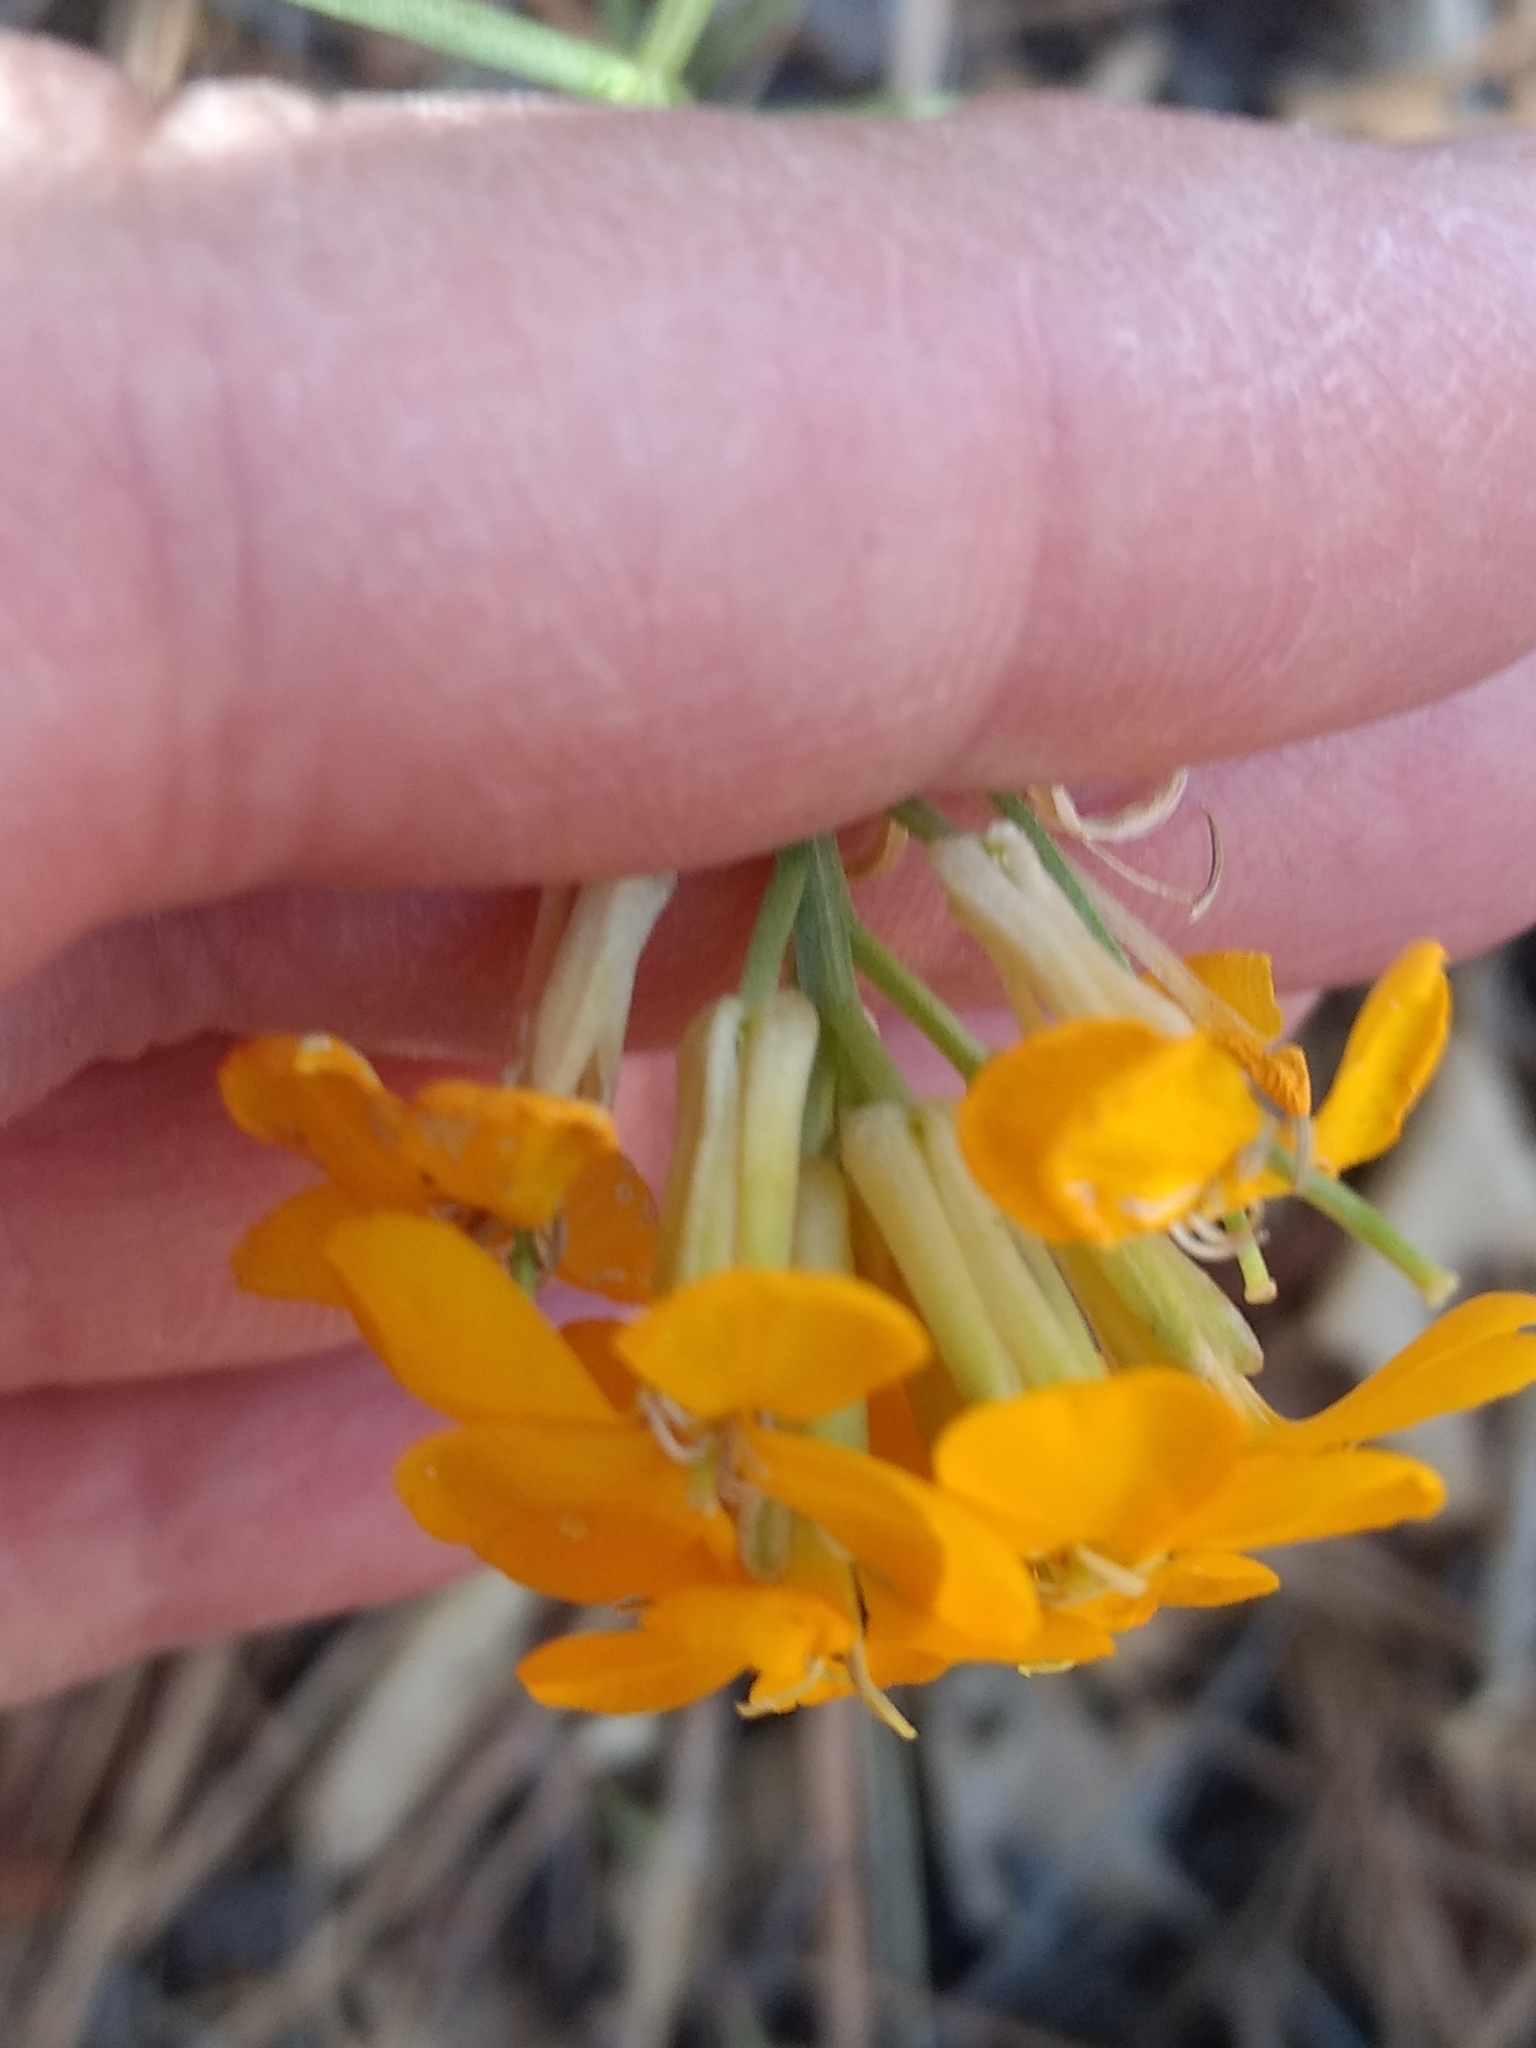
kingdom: Plantae
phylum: Tracheophyta
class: Magnoliopsida
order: Brassicales
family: Brassicaceae
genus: Erysimum
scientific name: Erysimum capitatum
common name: Western wallflower
